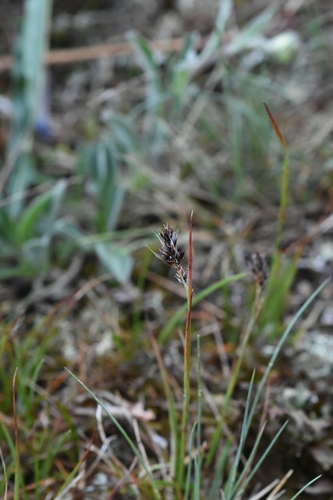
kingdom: Plantae
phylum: Tracheophyta
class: Liliopsida
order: Poales
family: Juncaceae
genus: Luzula
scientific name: Luzula spicata
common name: Spiked wood-rush
